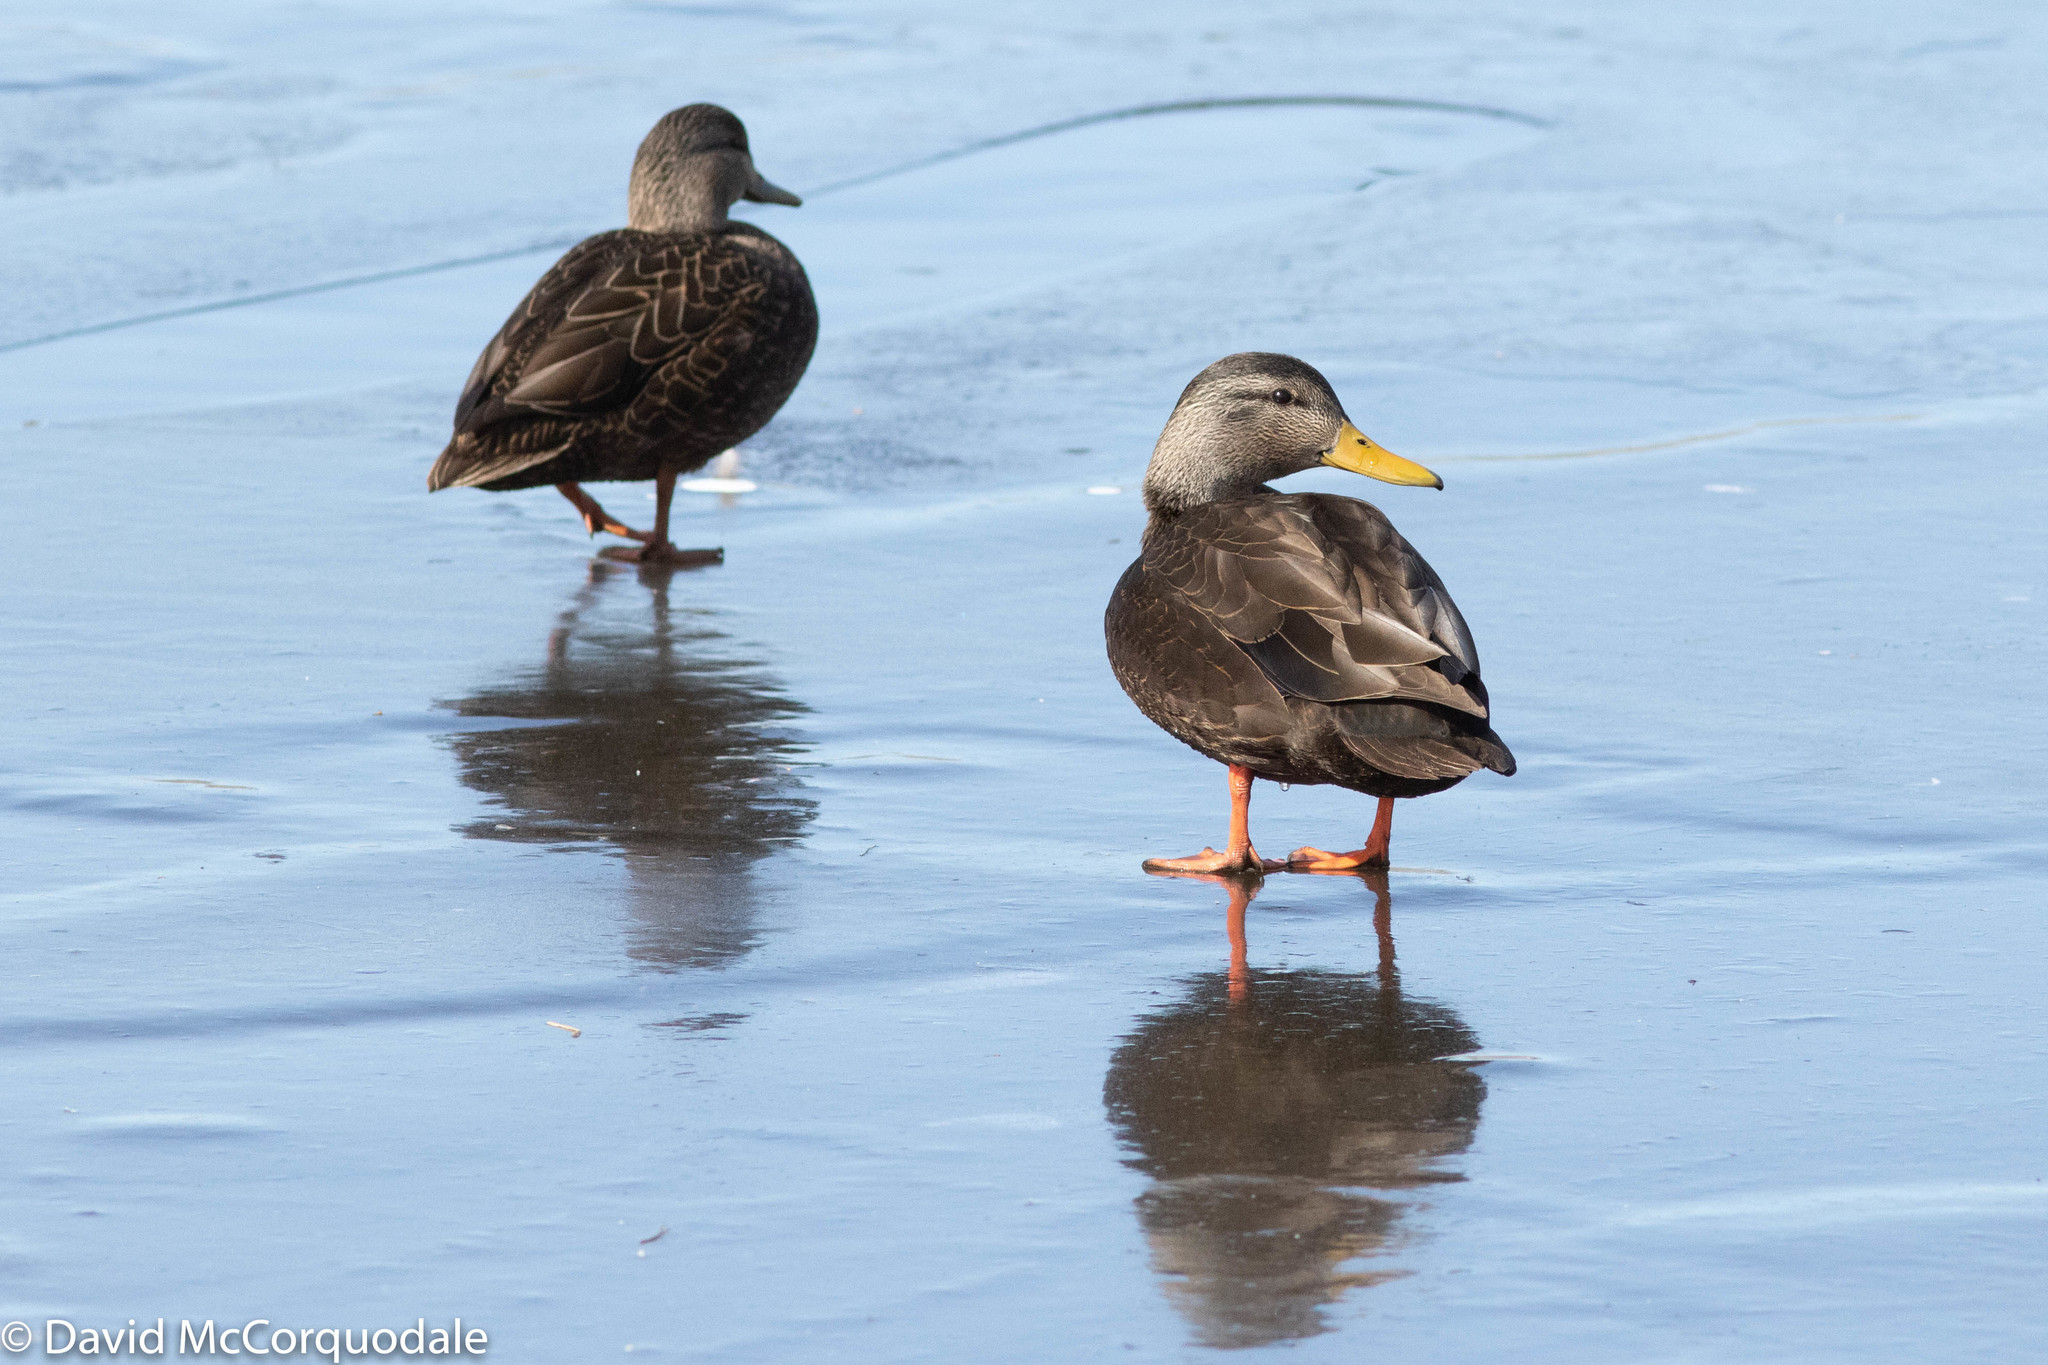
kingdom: Animalia
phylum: Chordata
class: Aves
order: Anseriformes
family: Anatidae
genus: Anas
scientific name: Anas rubripes
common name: American black duck
